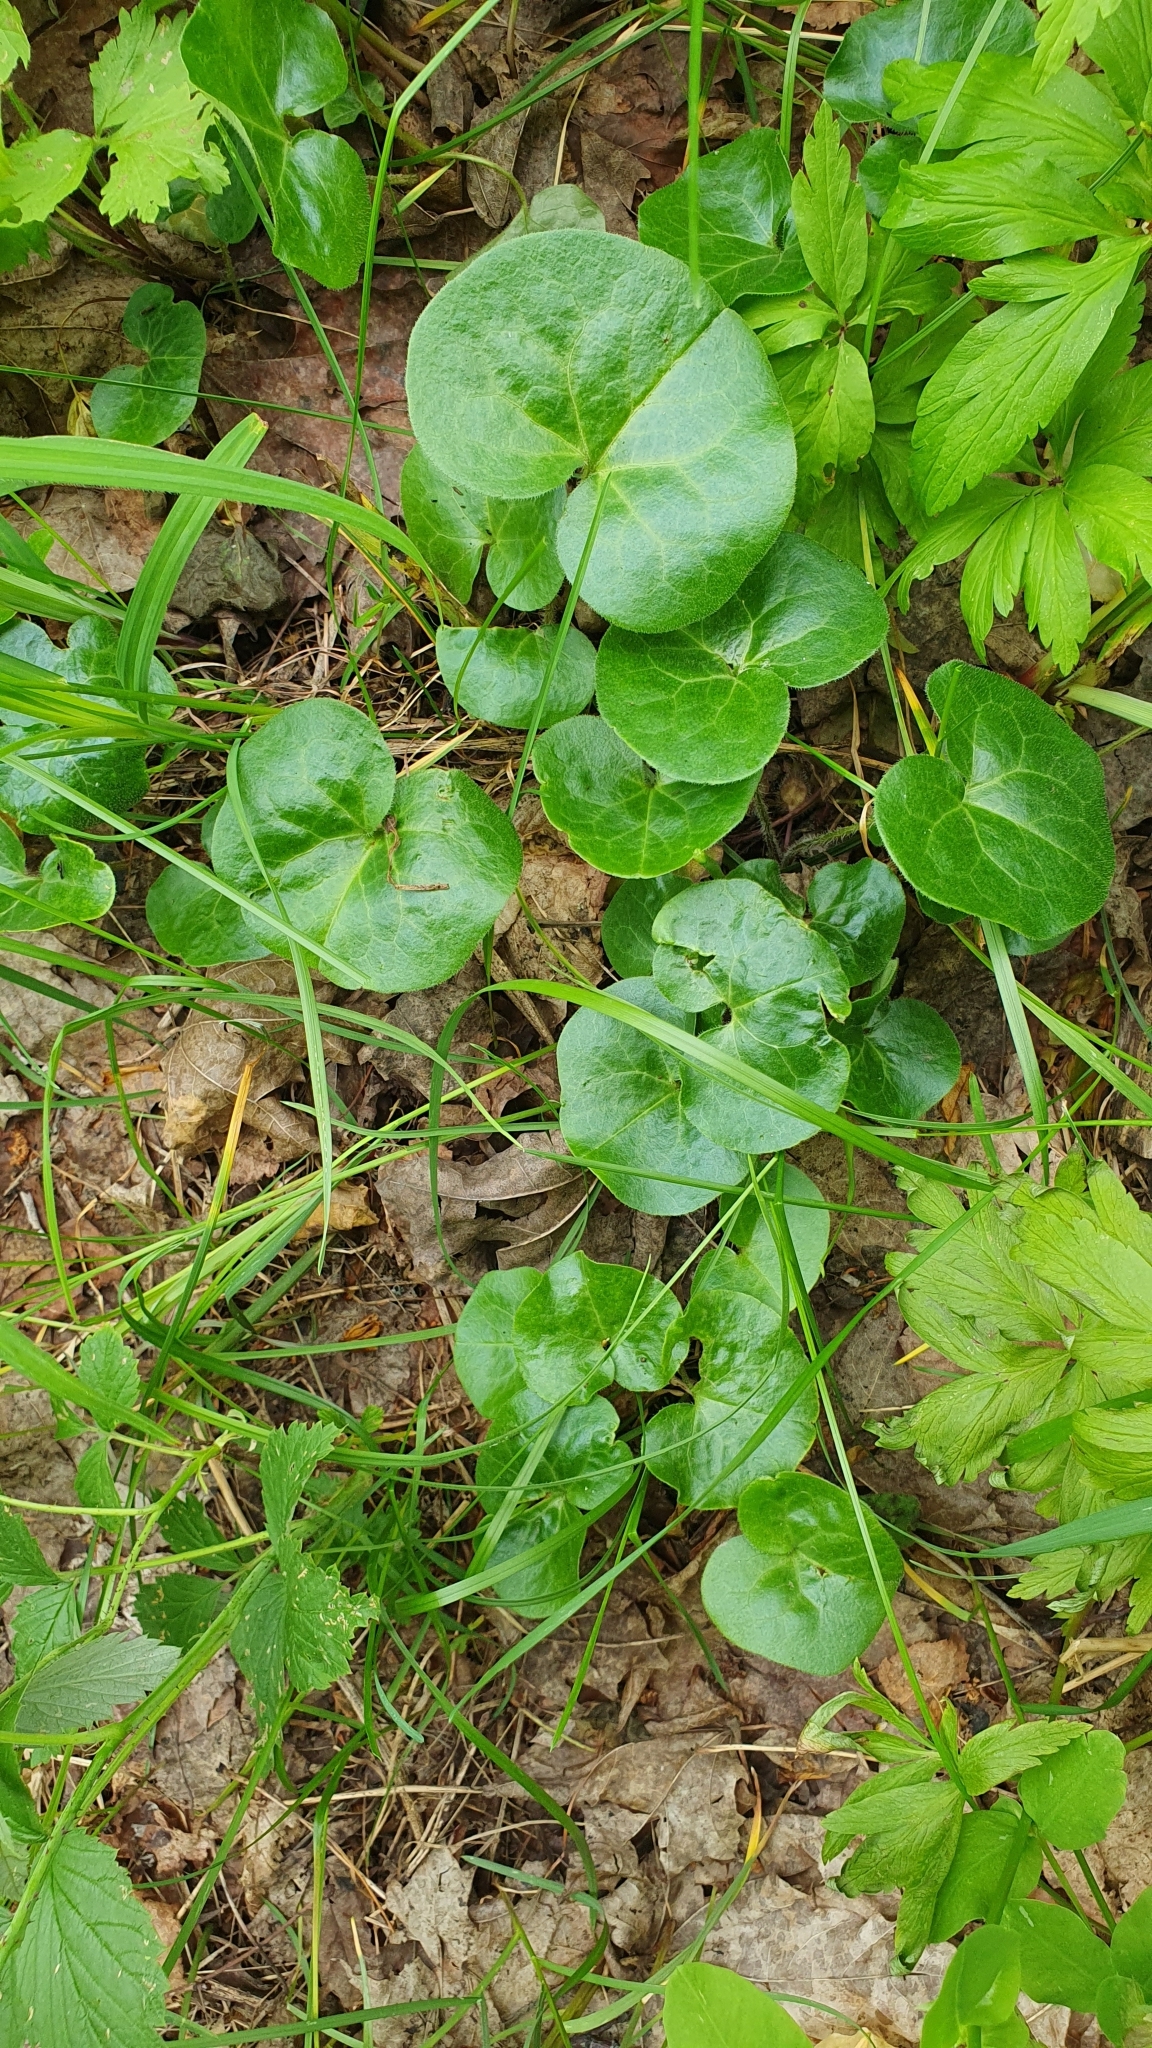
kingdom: Plantae
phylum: Tracheophyta
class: Magnoliopsida
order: Piperales
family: Aristolochiaceae
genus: Asarum
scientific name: Asarum europaeum
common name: Asarabacca
